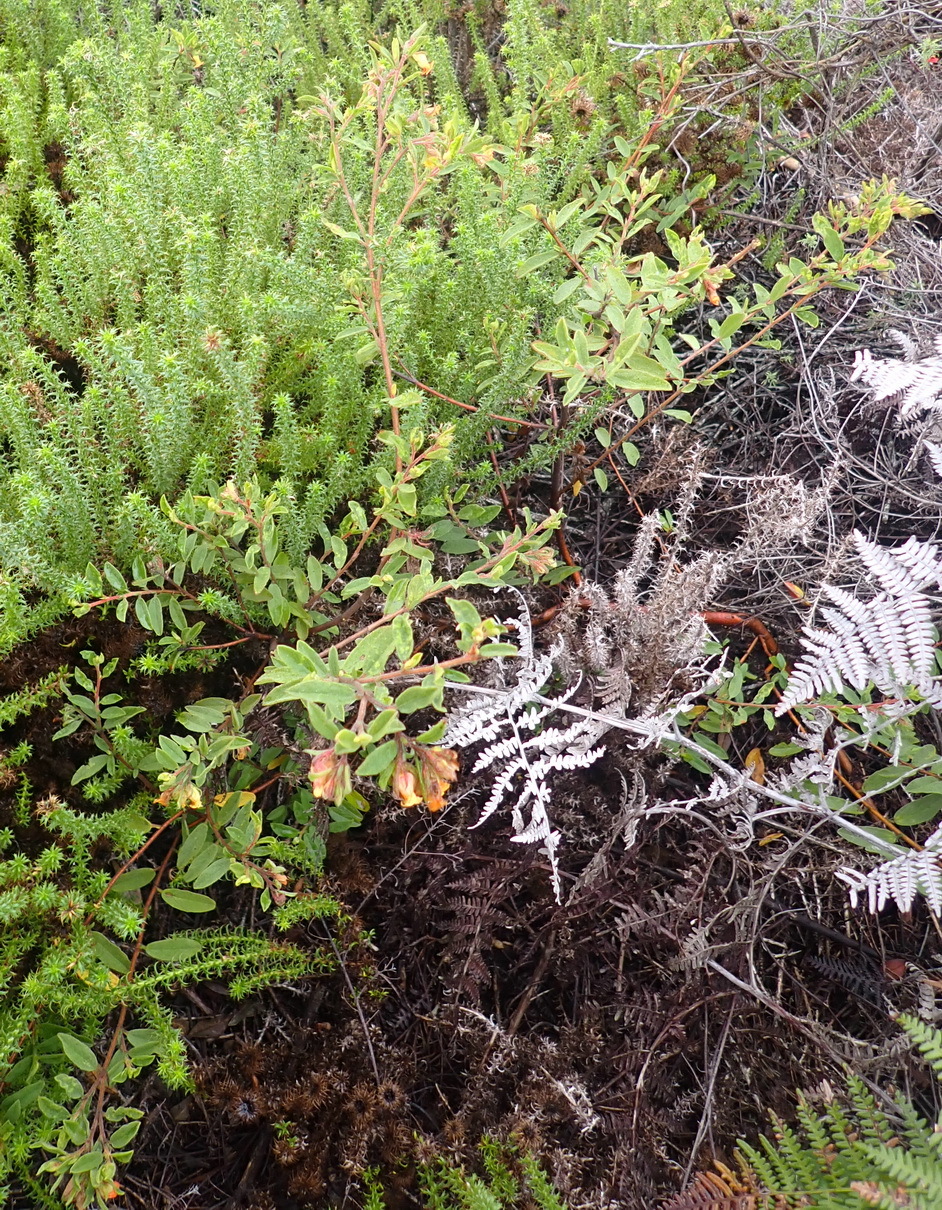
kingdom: Plantae
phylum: Tracheophyta
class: Magnoliopsida
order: Malvales
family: Malvaceae
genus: Hermannia
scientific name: Hermannia salviifolia
